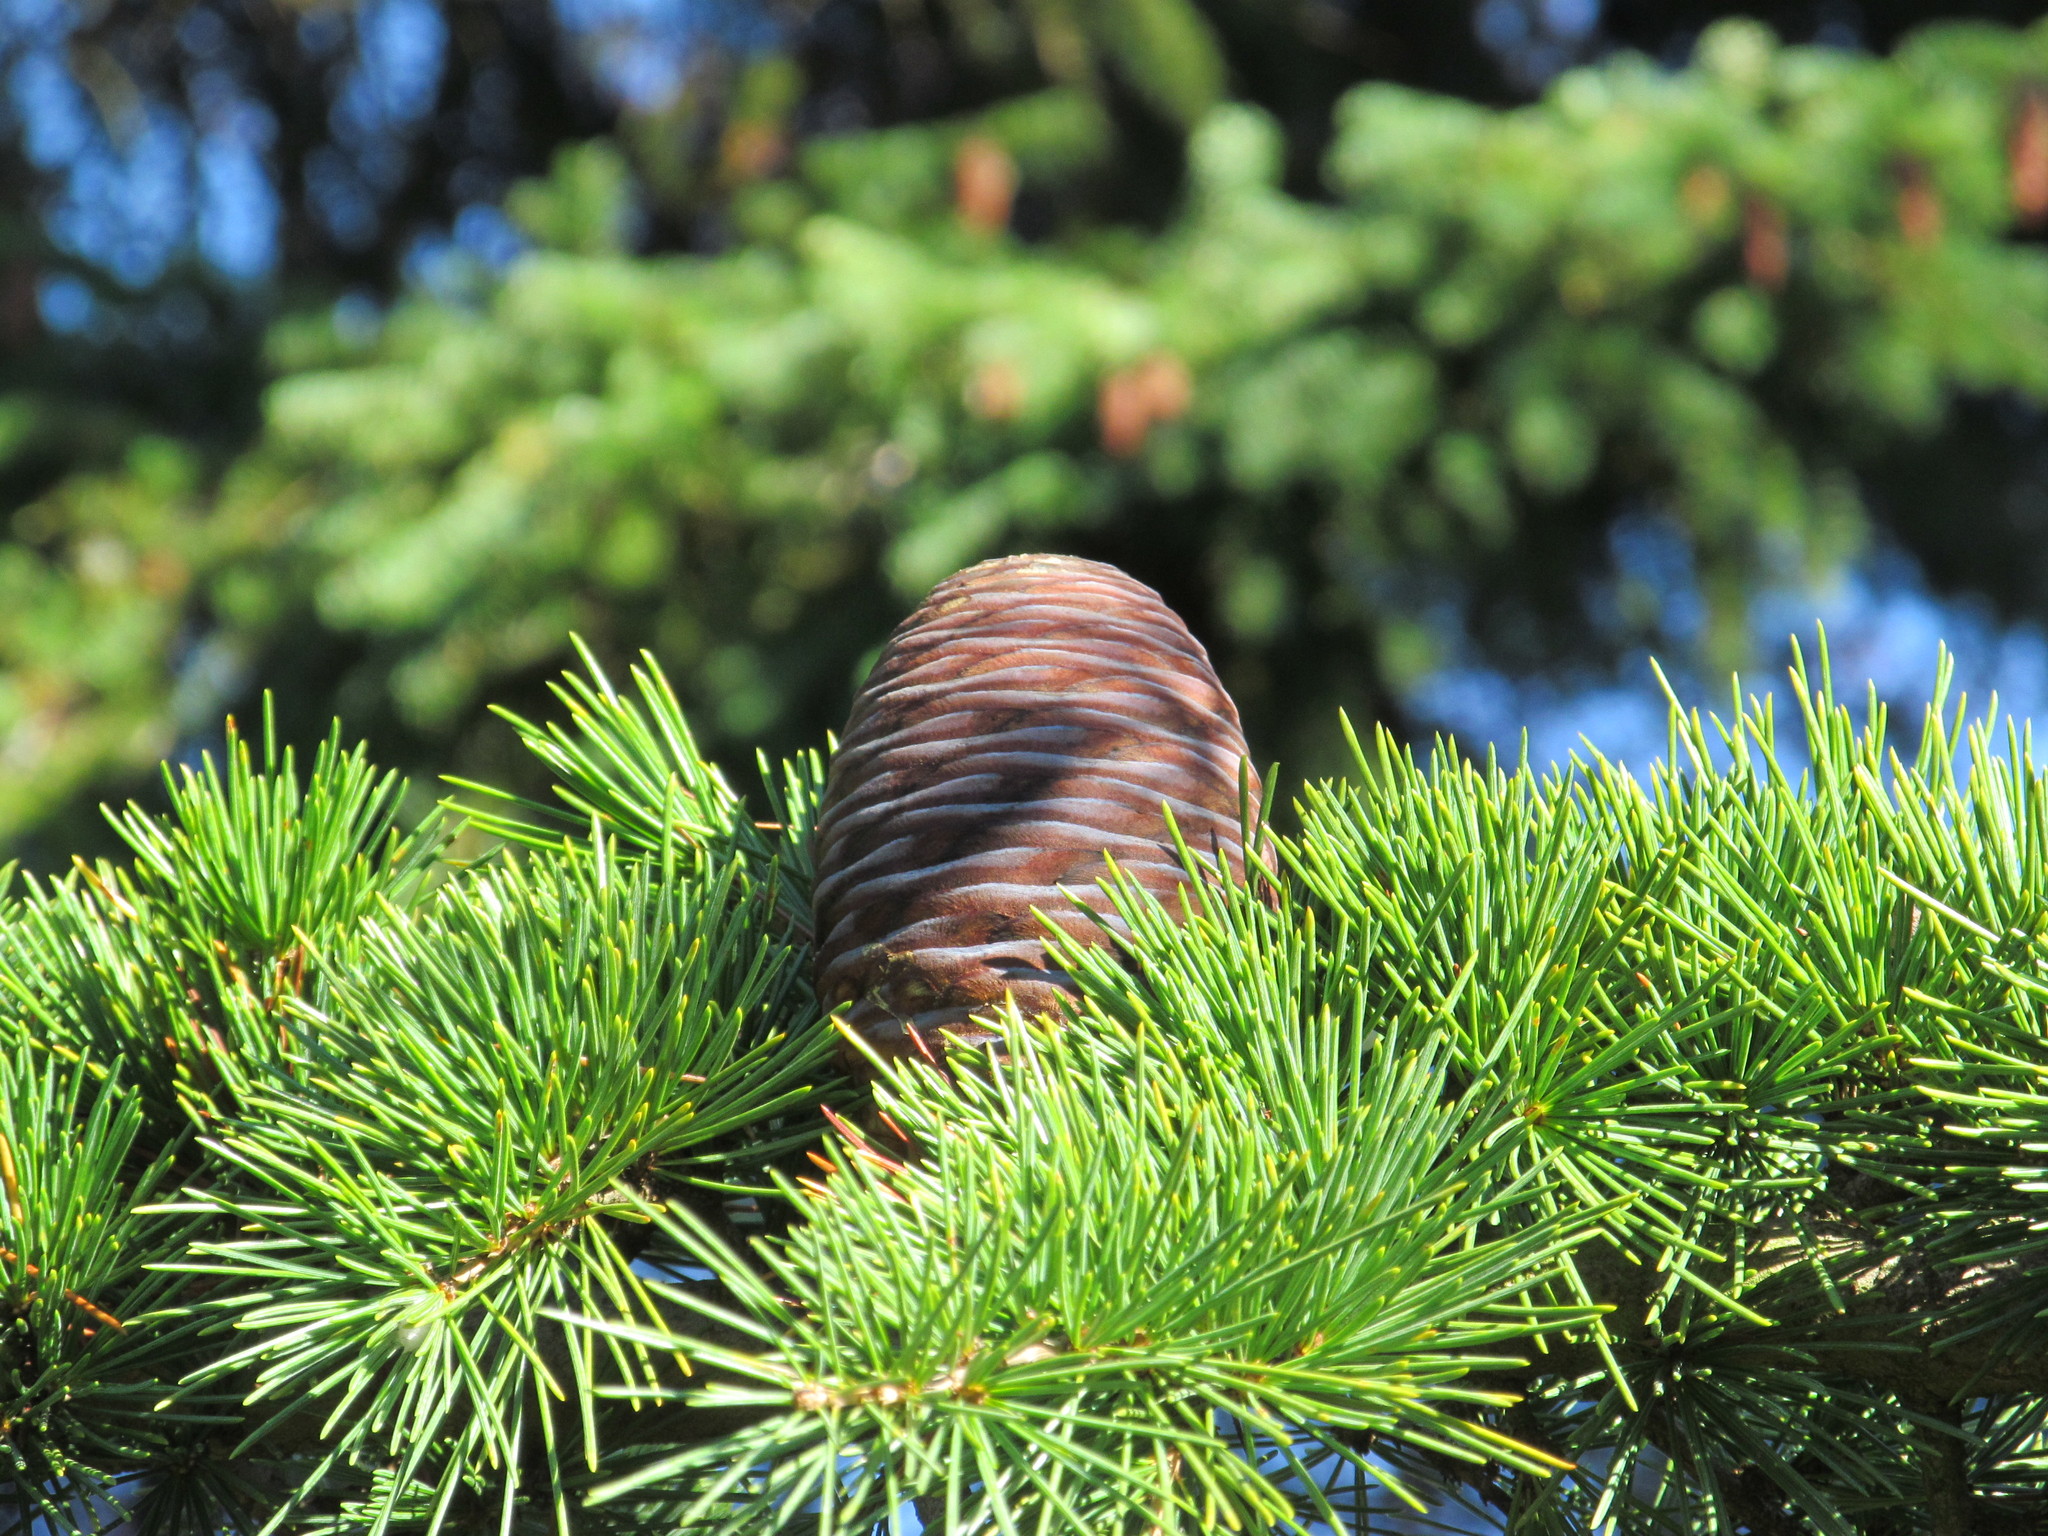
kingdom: Fungi
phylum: Basidiomycota
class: Agaricomycetes
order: Agaricales
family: Amanitaceae
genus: Amanita
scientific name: Amanita muscaria
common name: Fly agaric
